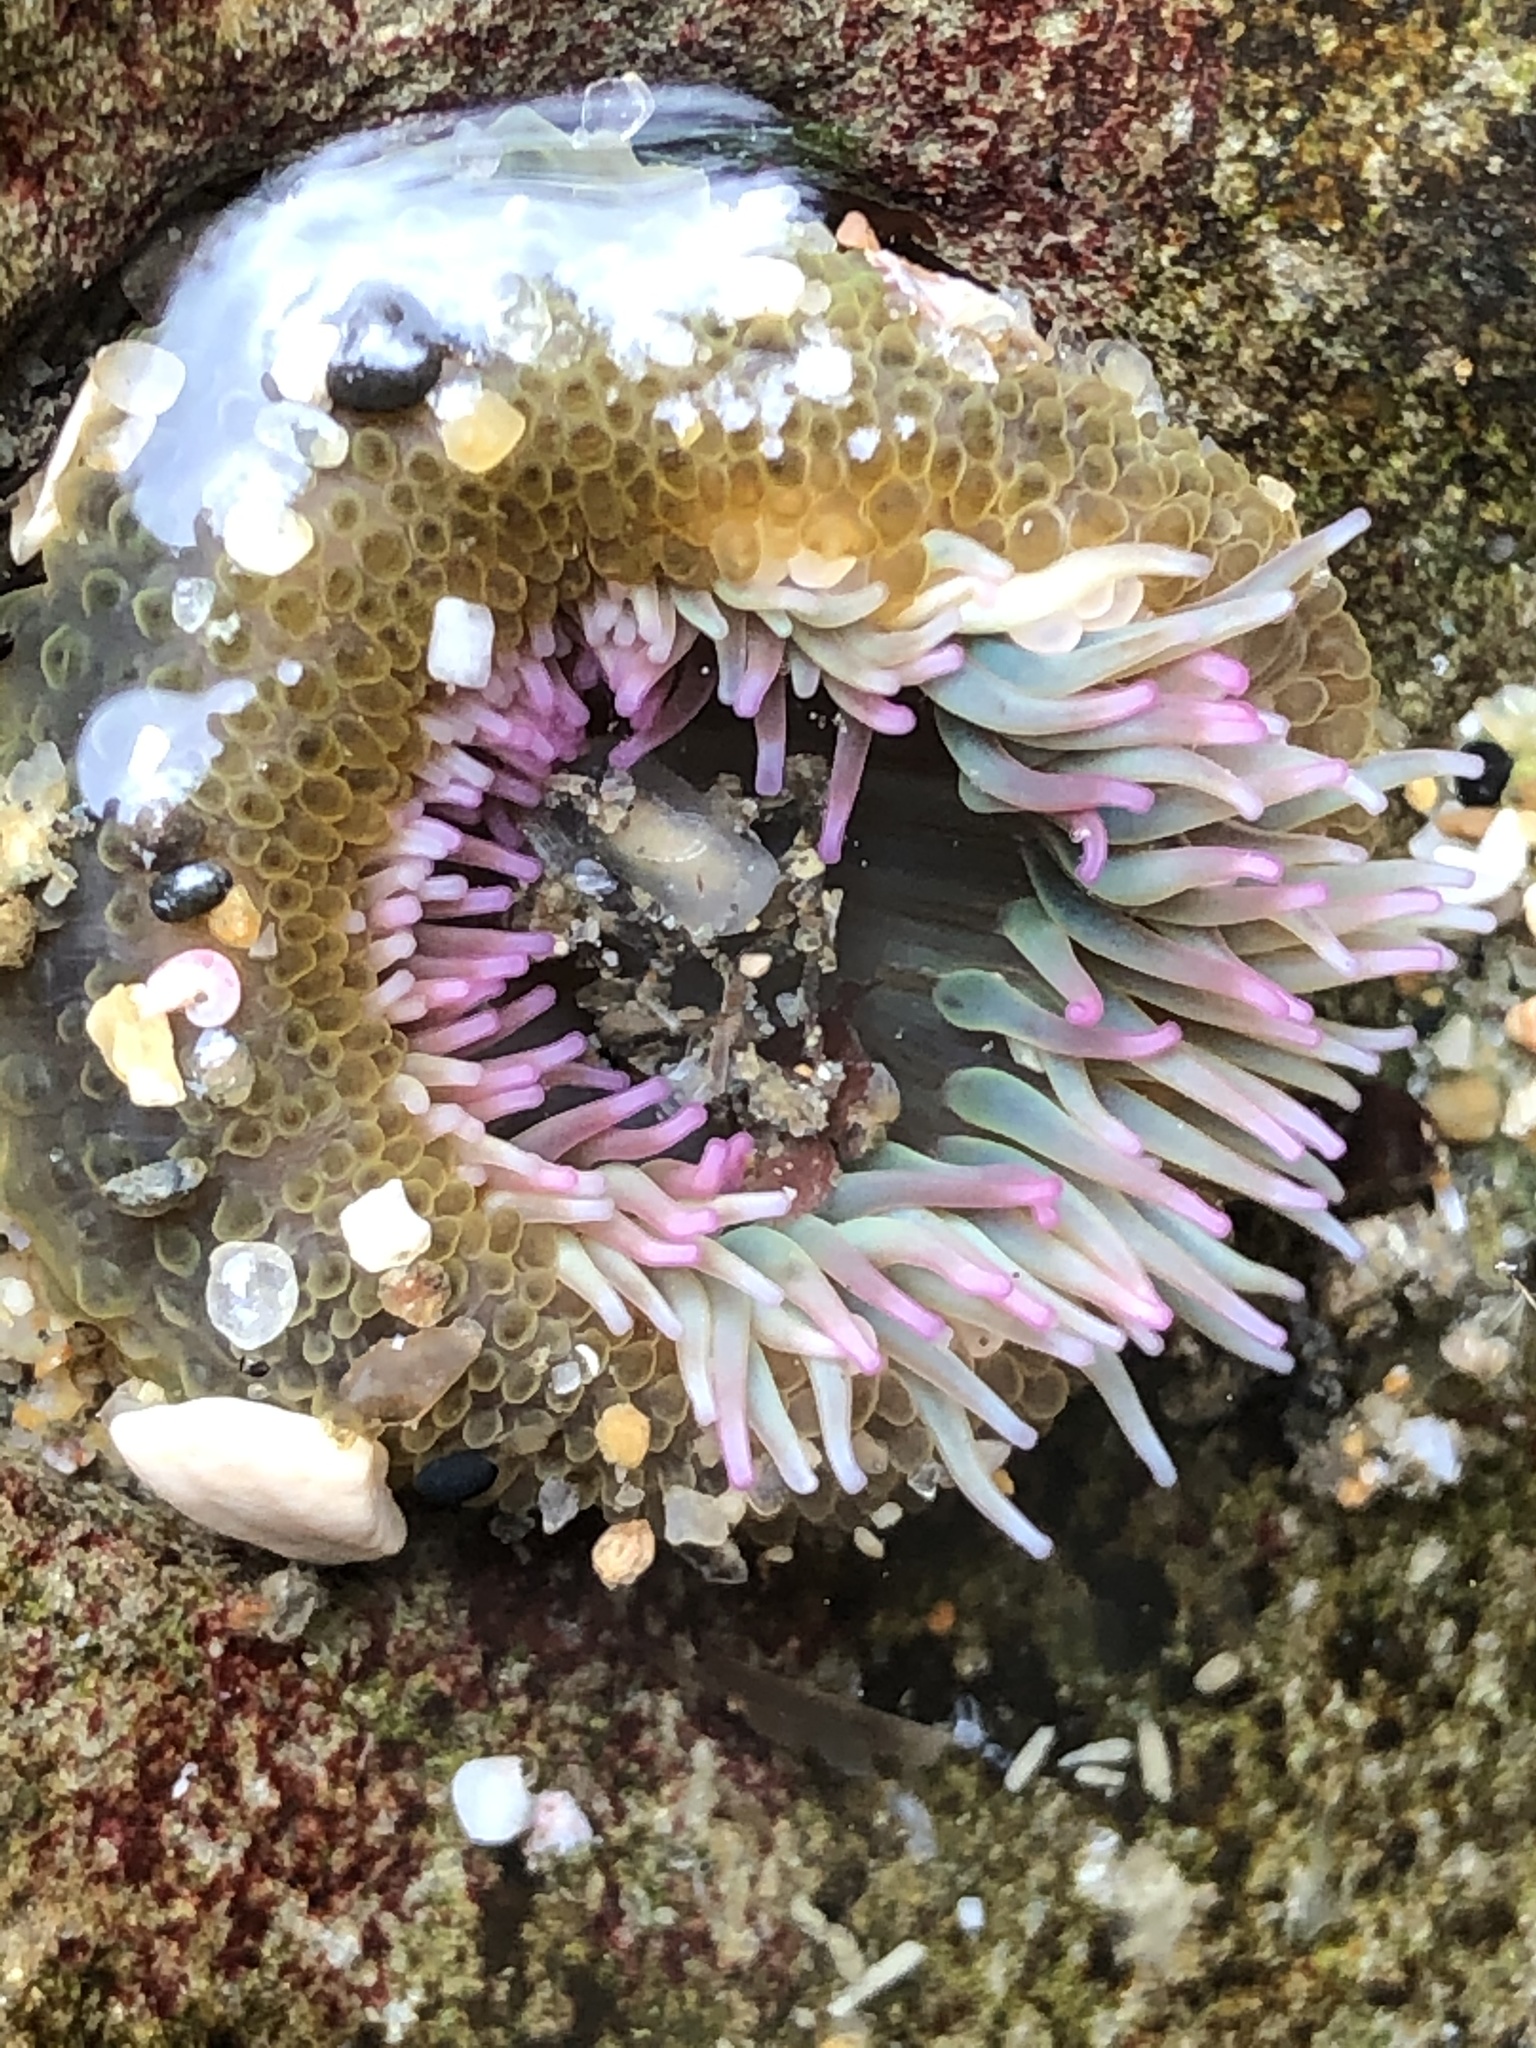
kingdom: Animalia
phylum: Cnidaria
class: Anthozoa
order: Actiniaria
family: Actiniidae
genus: Anthopleura
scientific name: Anthopleura elegantissima
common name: Clonal anemone
